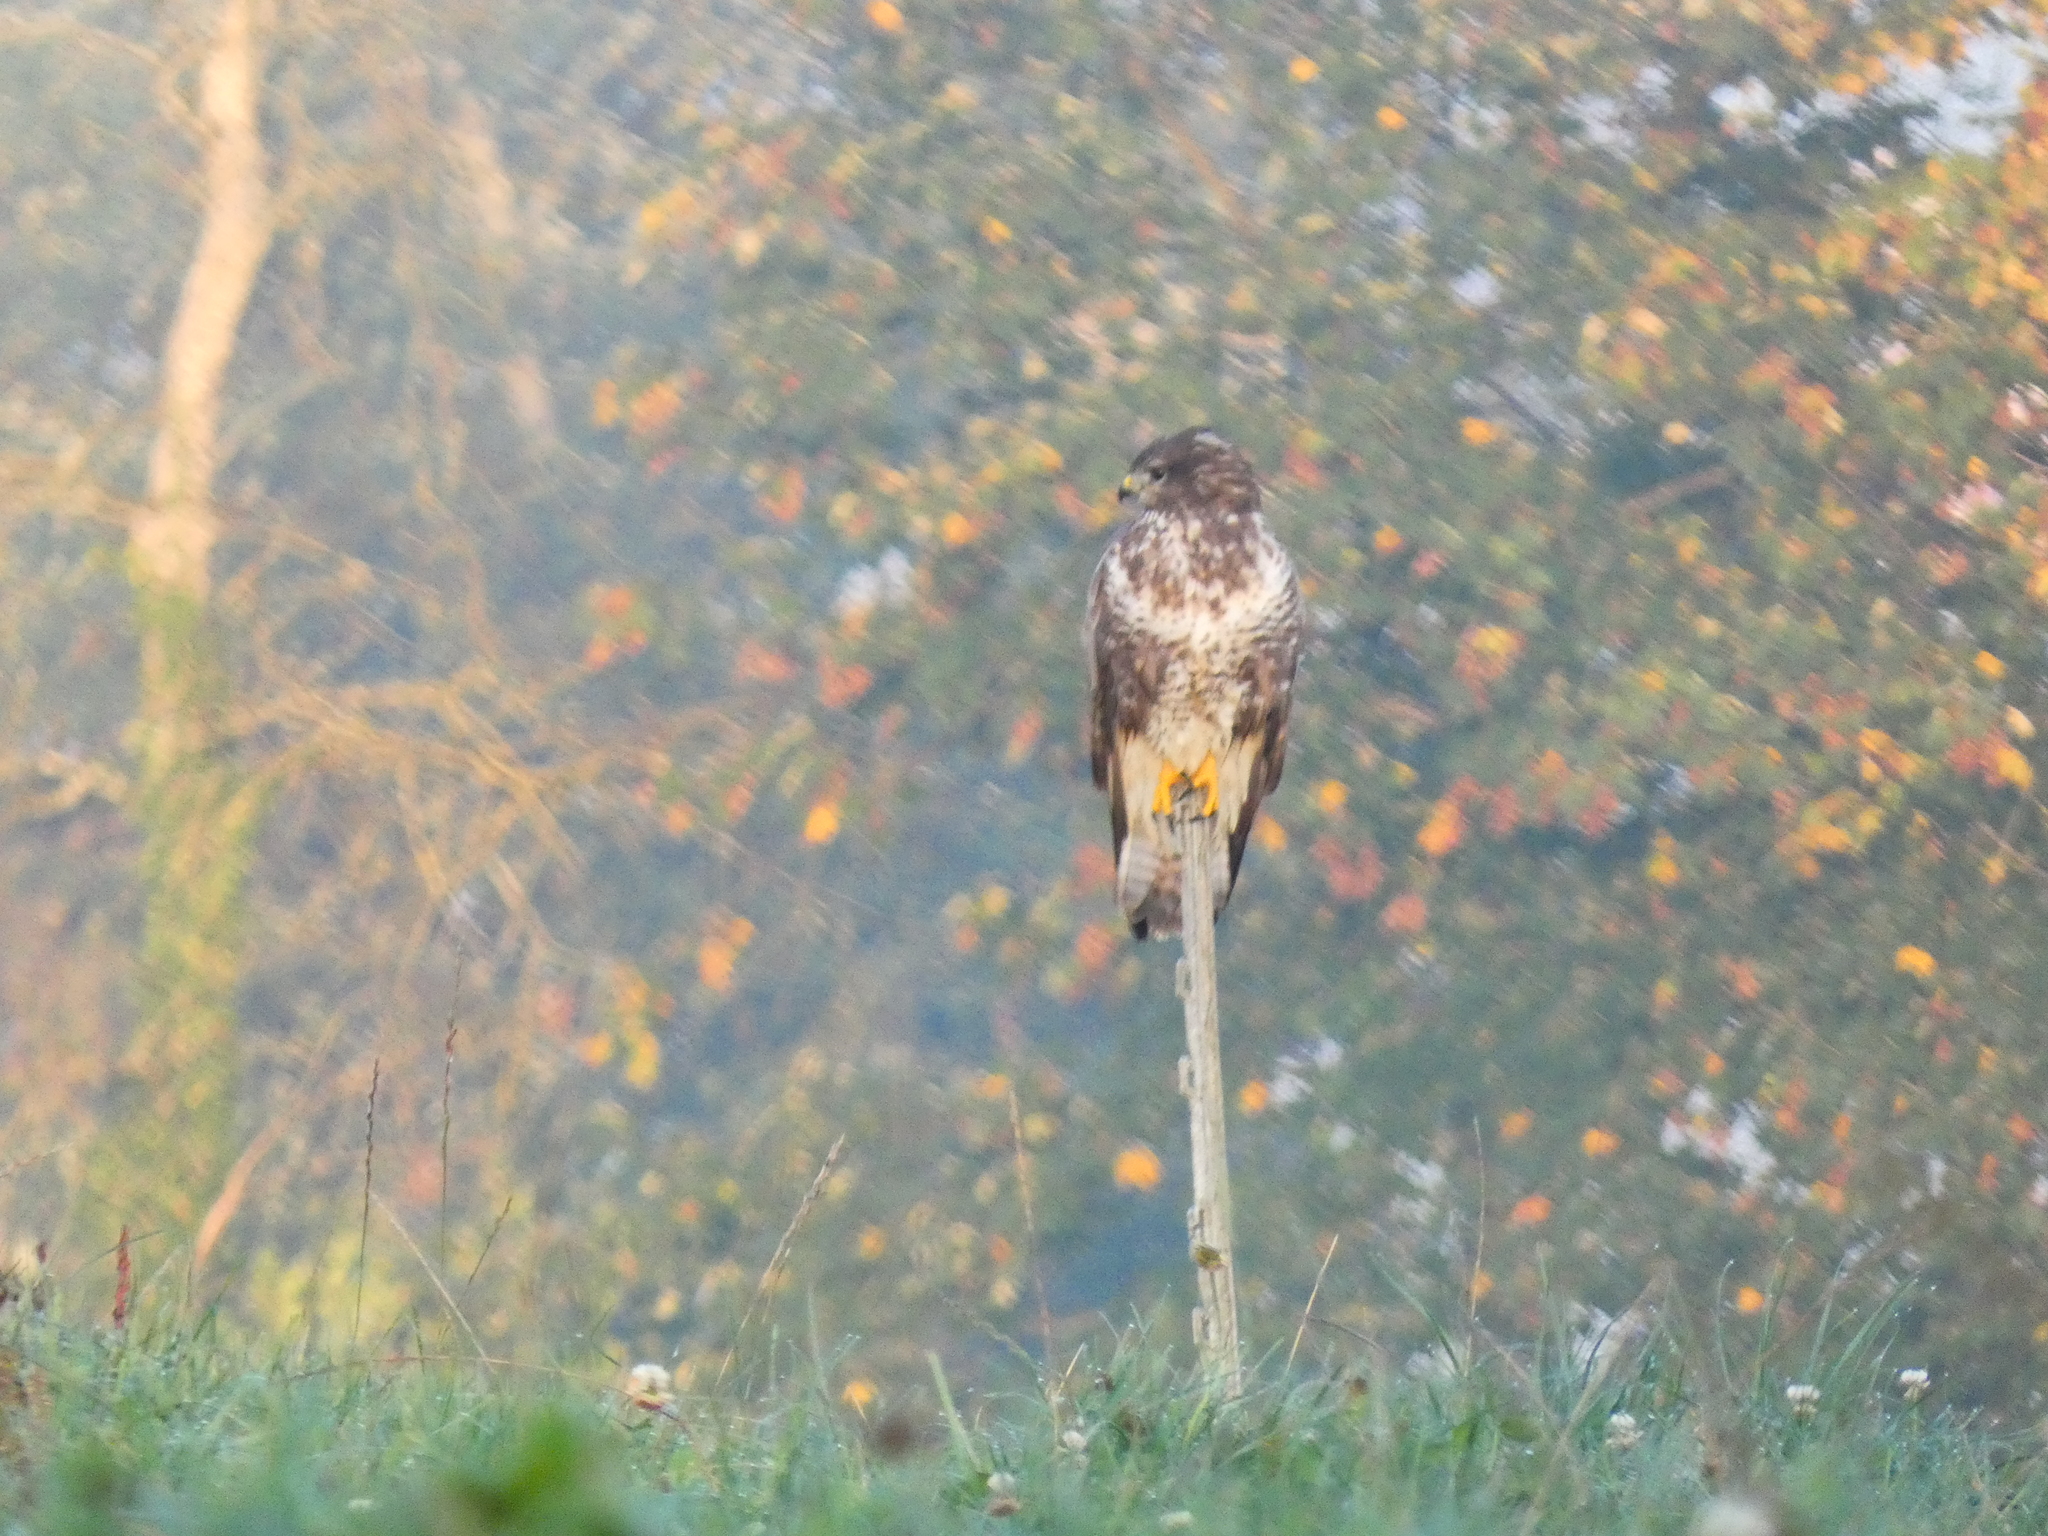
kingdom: Animalia
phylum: Chordata
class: Aves
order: Accipitriformes
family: Accipitridae
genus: Buteo
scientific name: Buteo buteo
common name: Common buzzard
